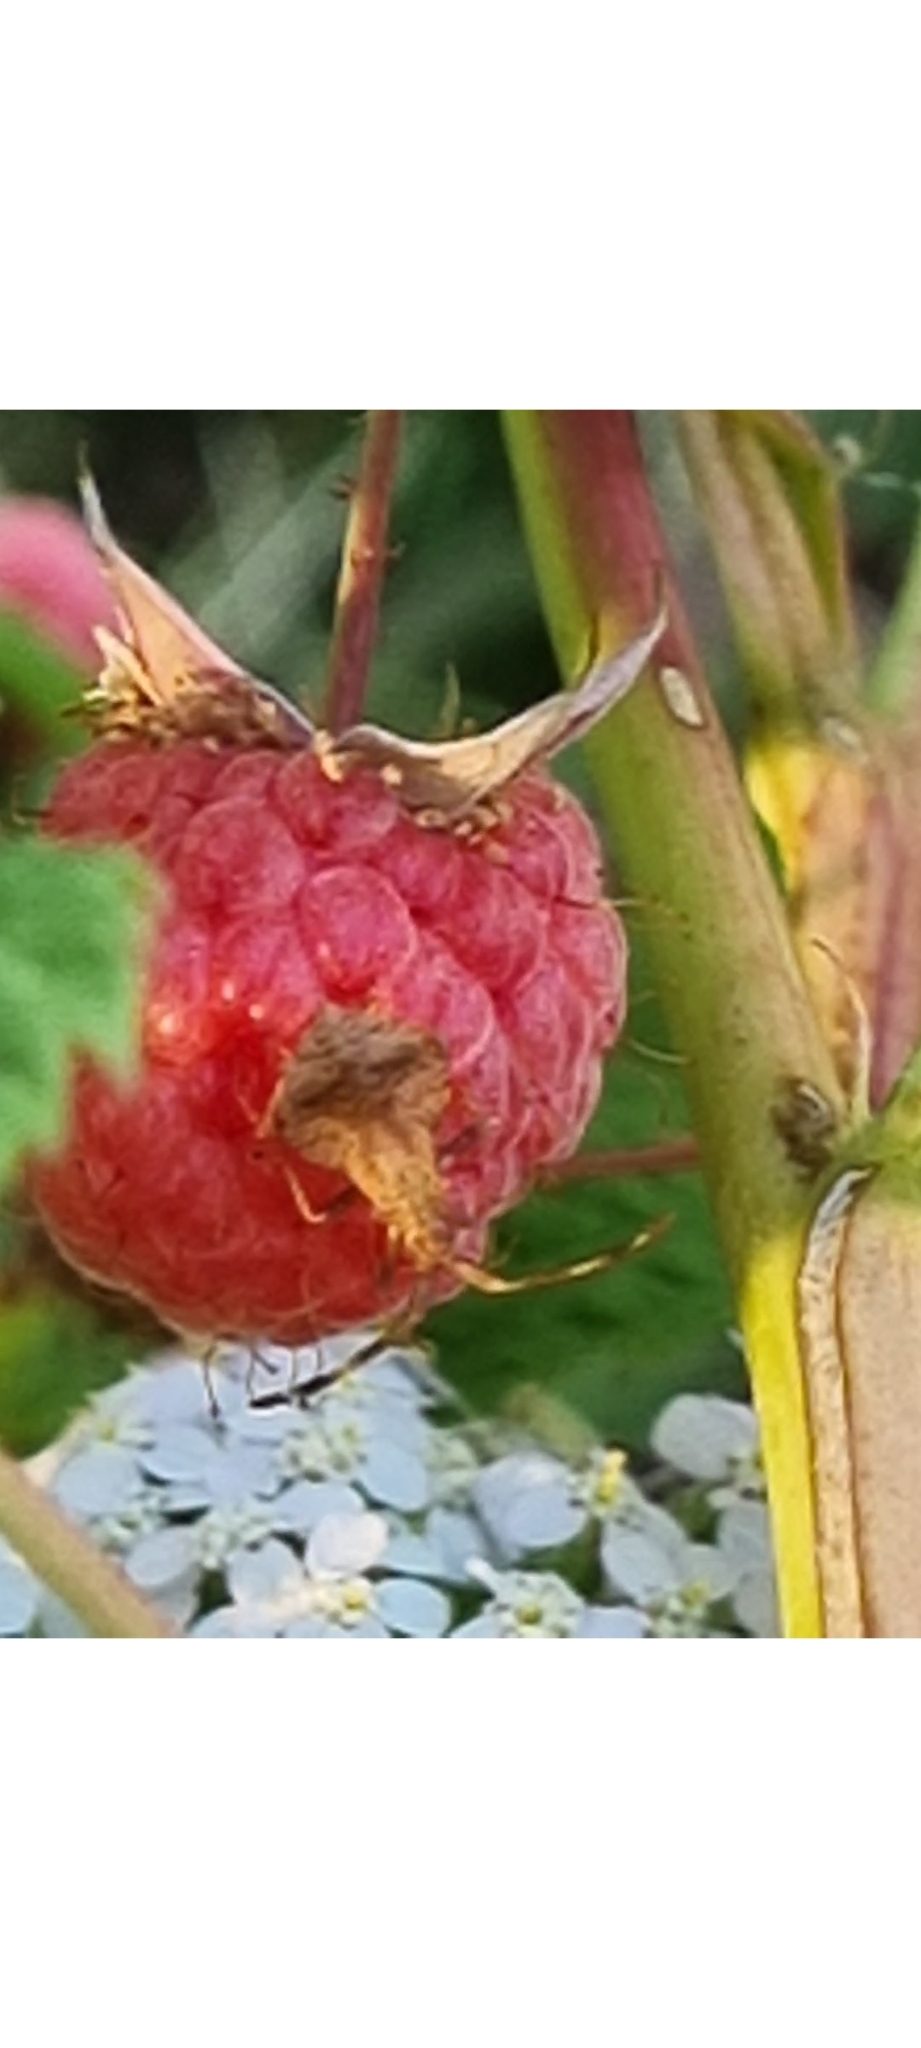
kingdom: Animalia
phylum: Arthropoda
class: Insecta
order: Hemiptera
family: Coreidae
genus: Coreus
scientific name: Coreus marginatus
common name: Dock bug
